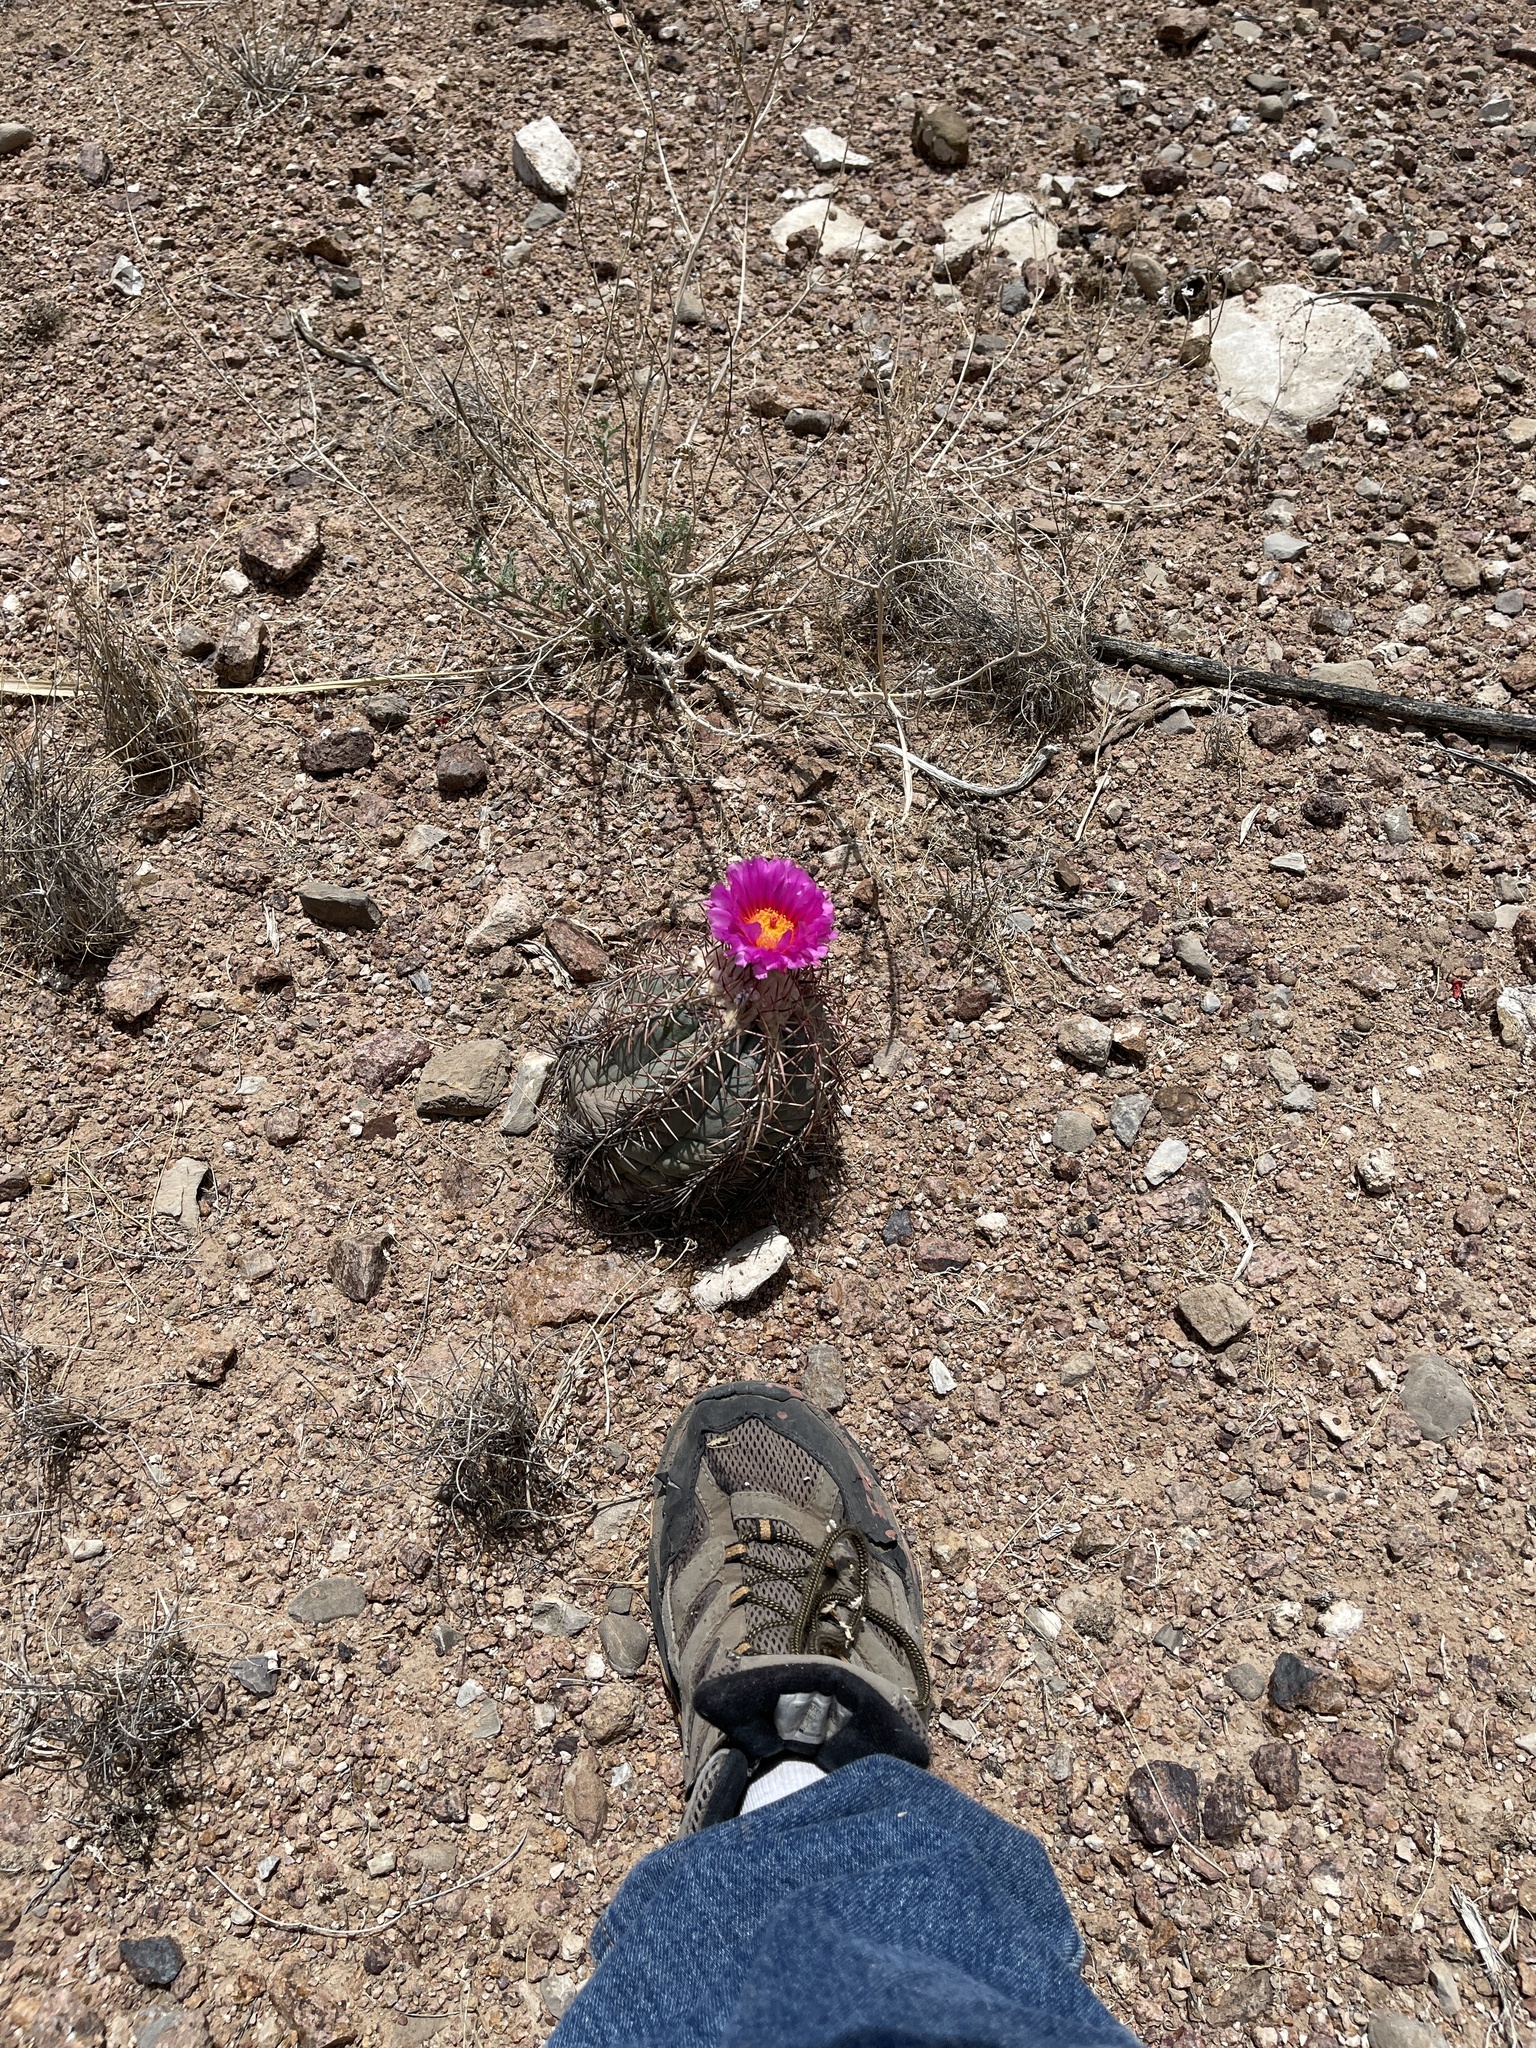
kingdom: Plantae
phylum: Tracheophyta
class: Magnoliopsida
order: Caryophyllales
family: Cactaceae
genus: Echinocactus
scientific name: Echinocactus horizonthalonius
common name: Devilshead
